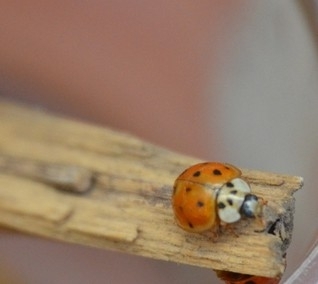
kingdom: Animalia
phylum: Arthropoda
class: Insecta
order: Coleoptera
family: Coccinellidae
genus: Harmonia
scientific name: Harmonia axyridis
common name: Harlequin ladybird
